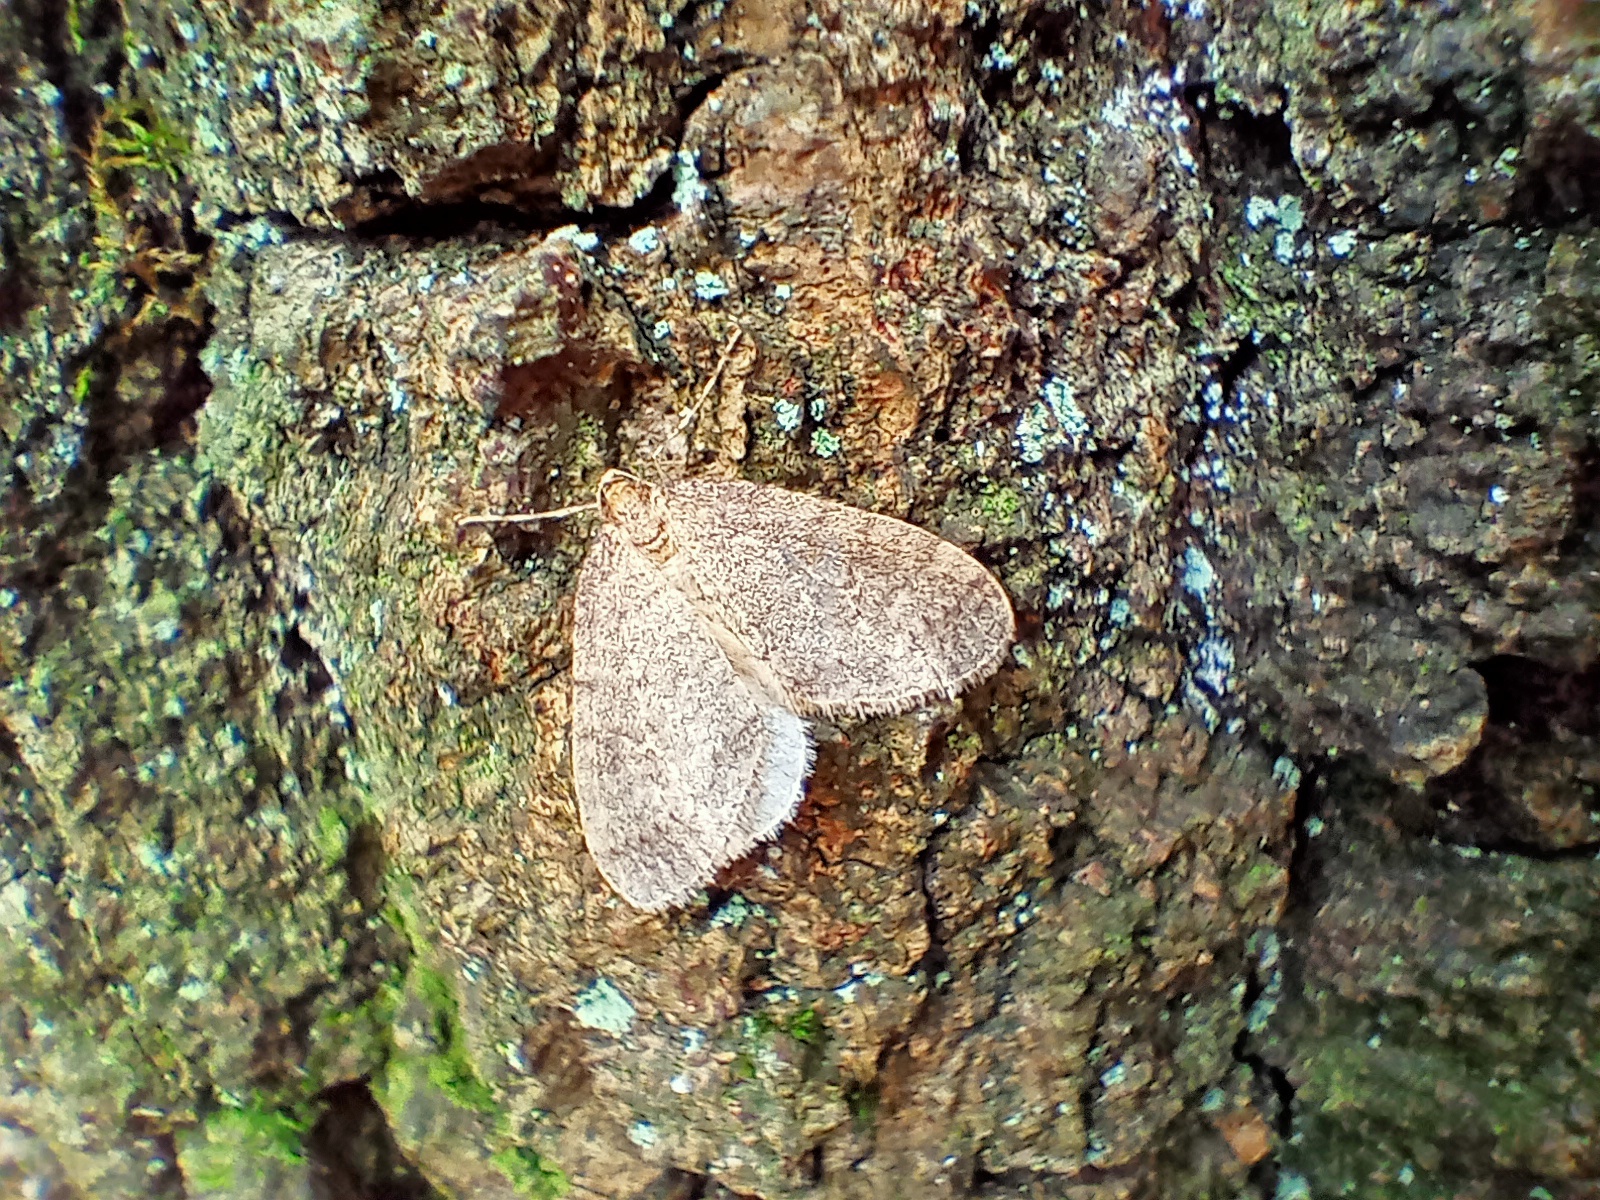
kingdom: Animalia
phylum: Arthropoda
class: Insecta
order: Lepidoptera
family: Geometridae
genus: Operophtera
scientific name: Operophtera brumata
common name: Winter moth
